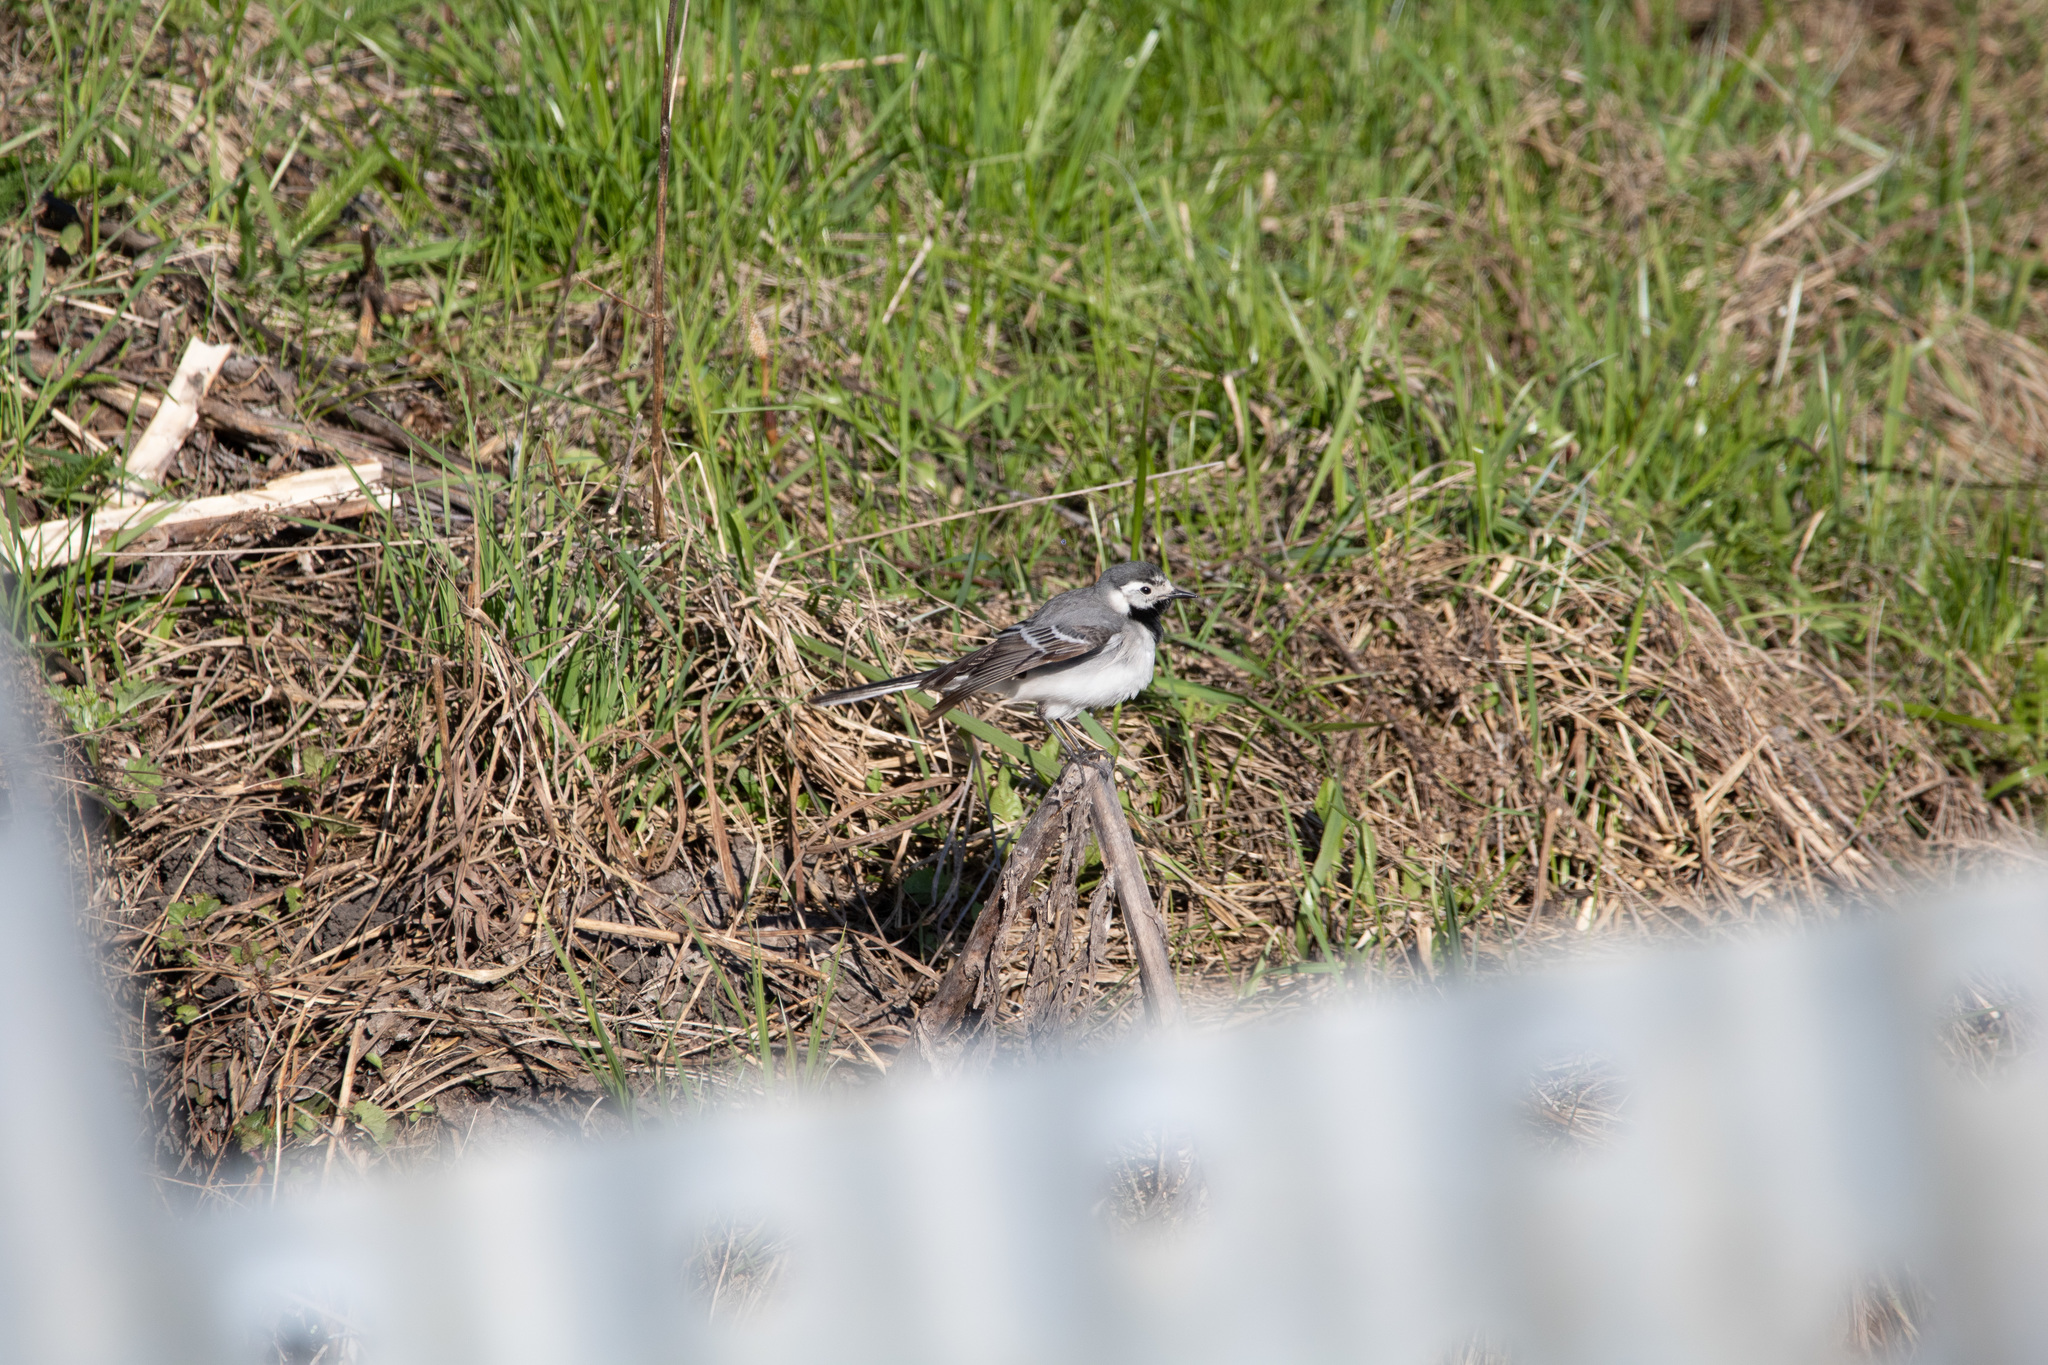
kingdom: Animalia
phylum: Chordata
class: Aves
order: Passeriformes
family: Motacillidae
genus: Motacilla
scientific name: Motacilla alba
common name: White wagtail
